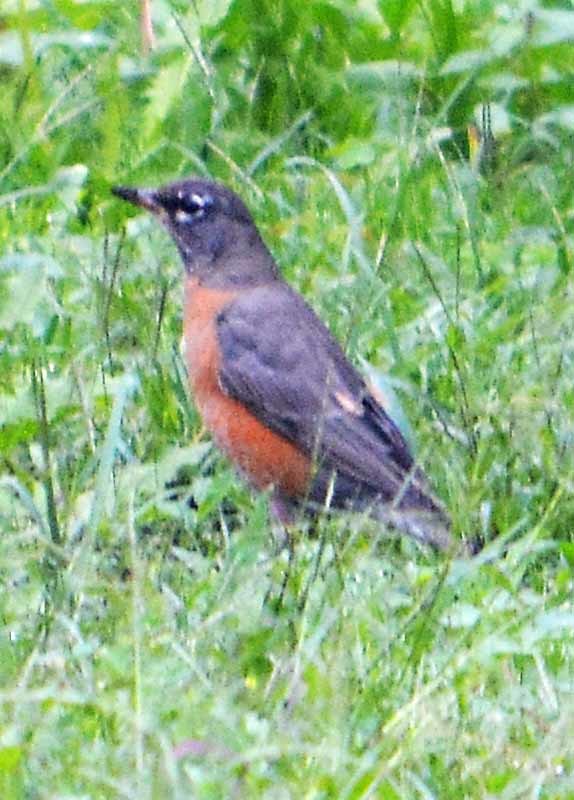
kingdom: Animalia
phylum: Chordata
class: Aves
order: Passeriformes
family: Turdidae
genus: Turdus
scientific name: Turdus migratorius
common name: American robin
